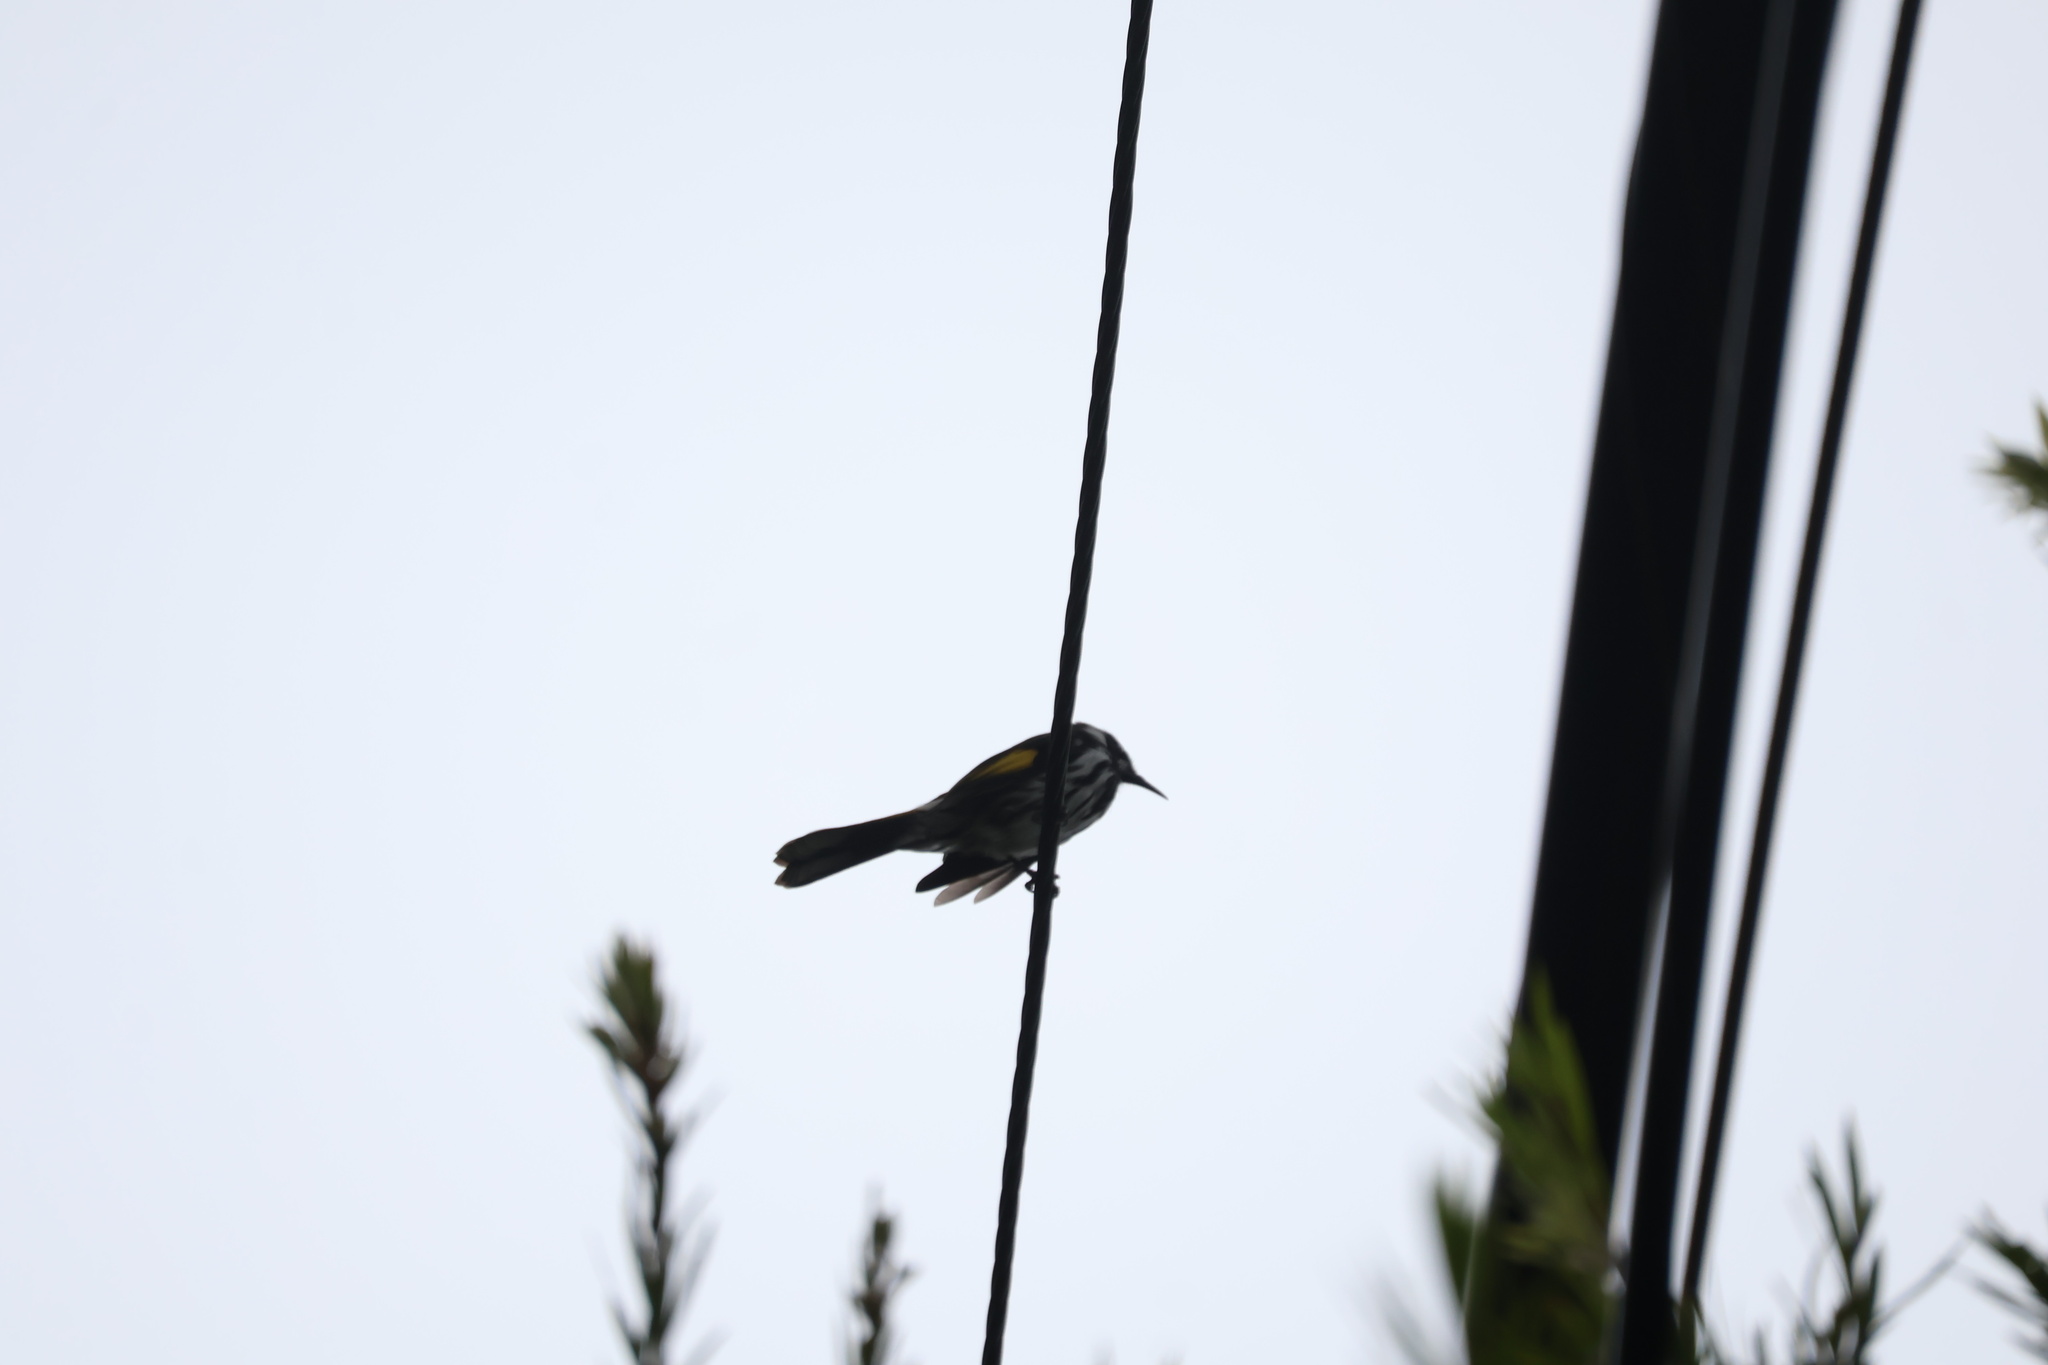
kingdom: Animalia
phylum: Chordata
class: Aves
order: Passeriformes
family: Meliphagidae
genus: Phylidonyris
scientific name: Phylidonyris novaehollandiae
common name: New holland honeyeater
